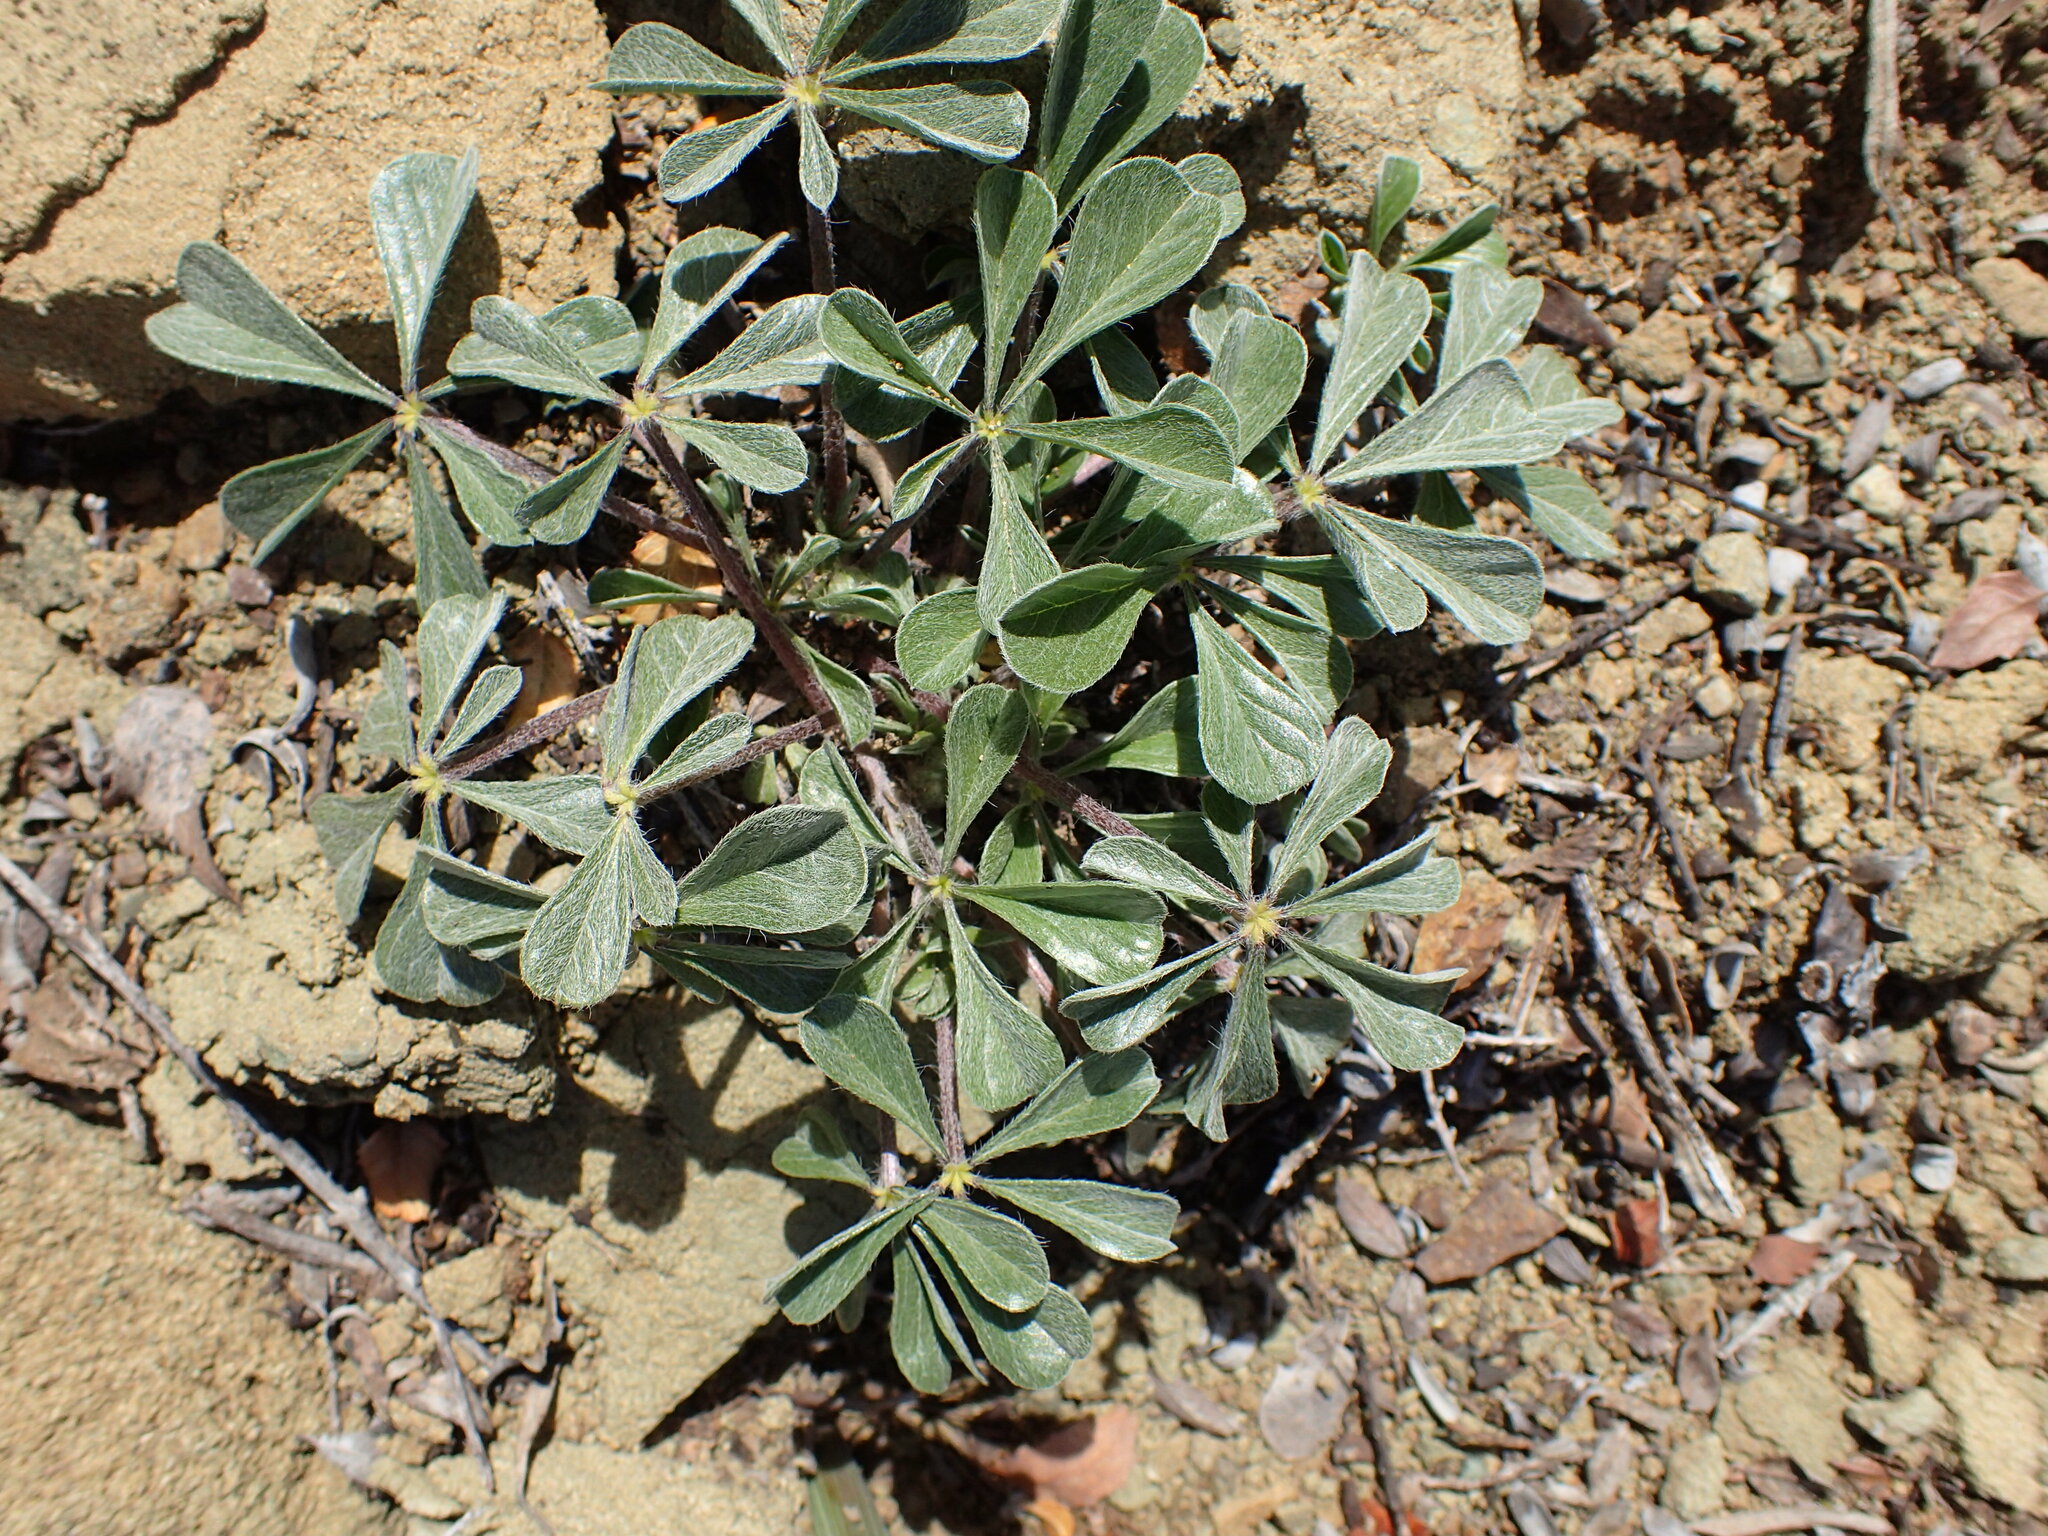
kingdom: Plantae
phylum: Tracheophyta
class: Magnoliopsida
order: Fabales
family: Fabaceae
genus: Pediomelum
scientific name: Pediomelum californicum
